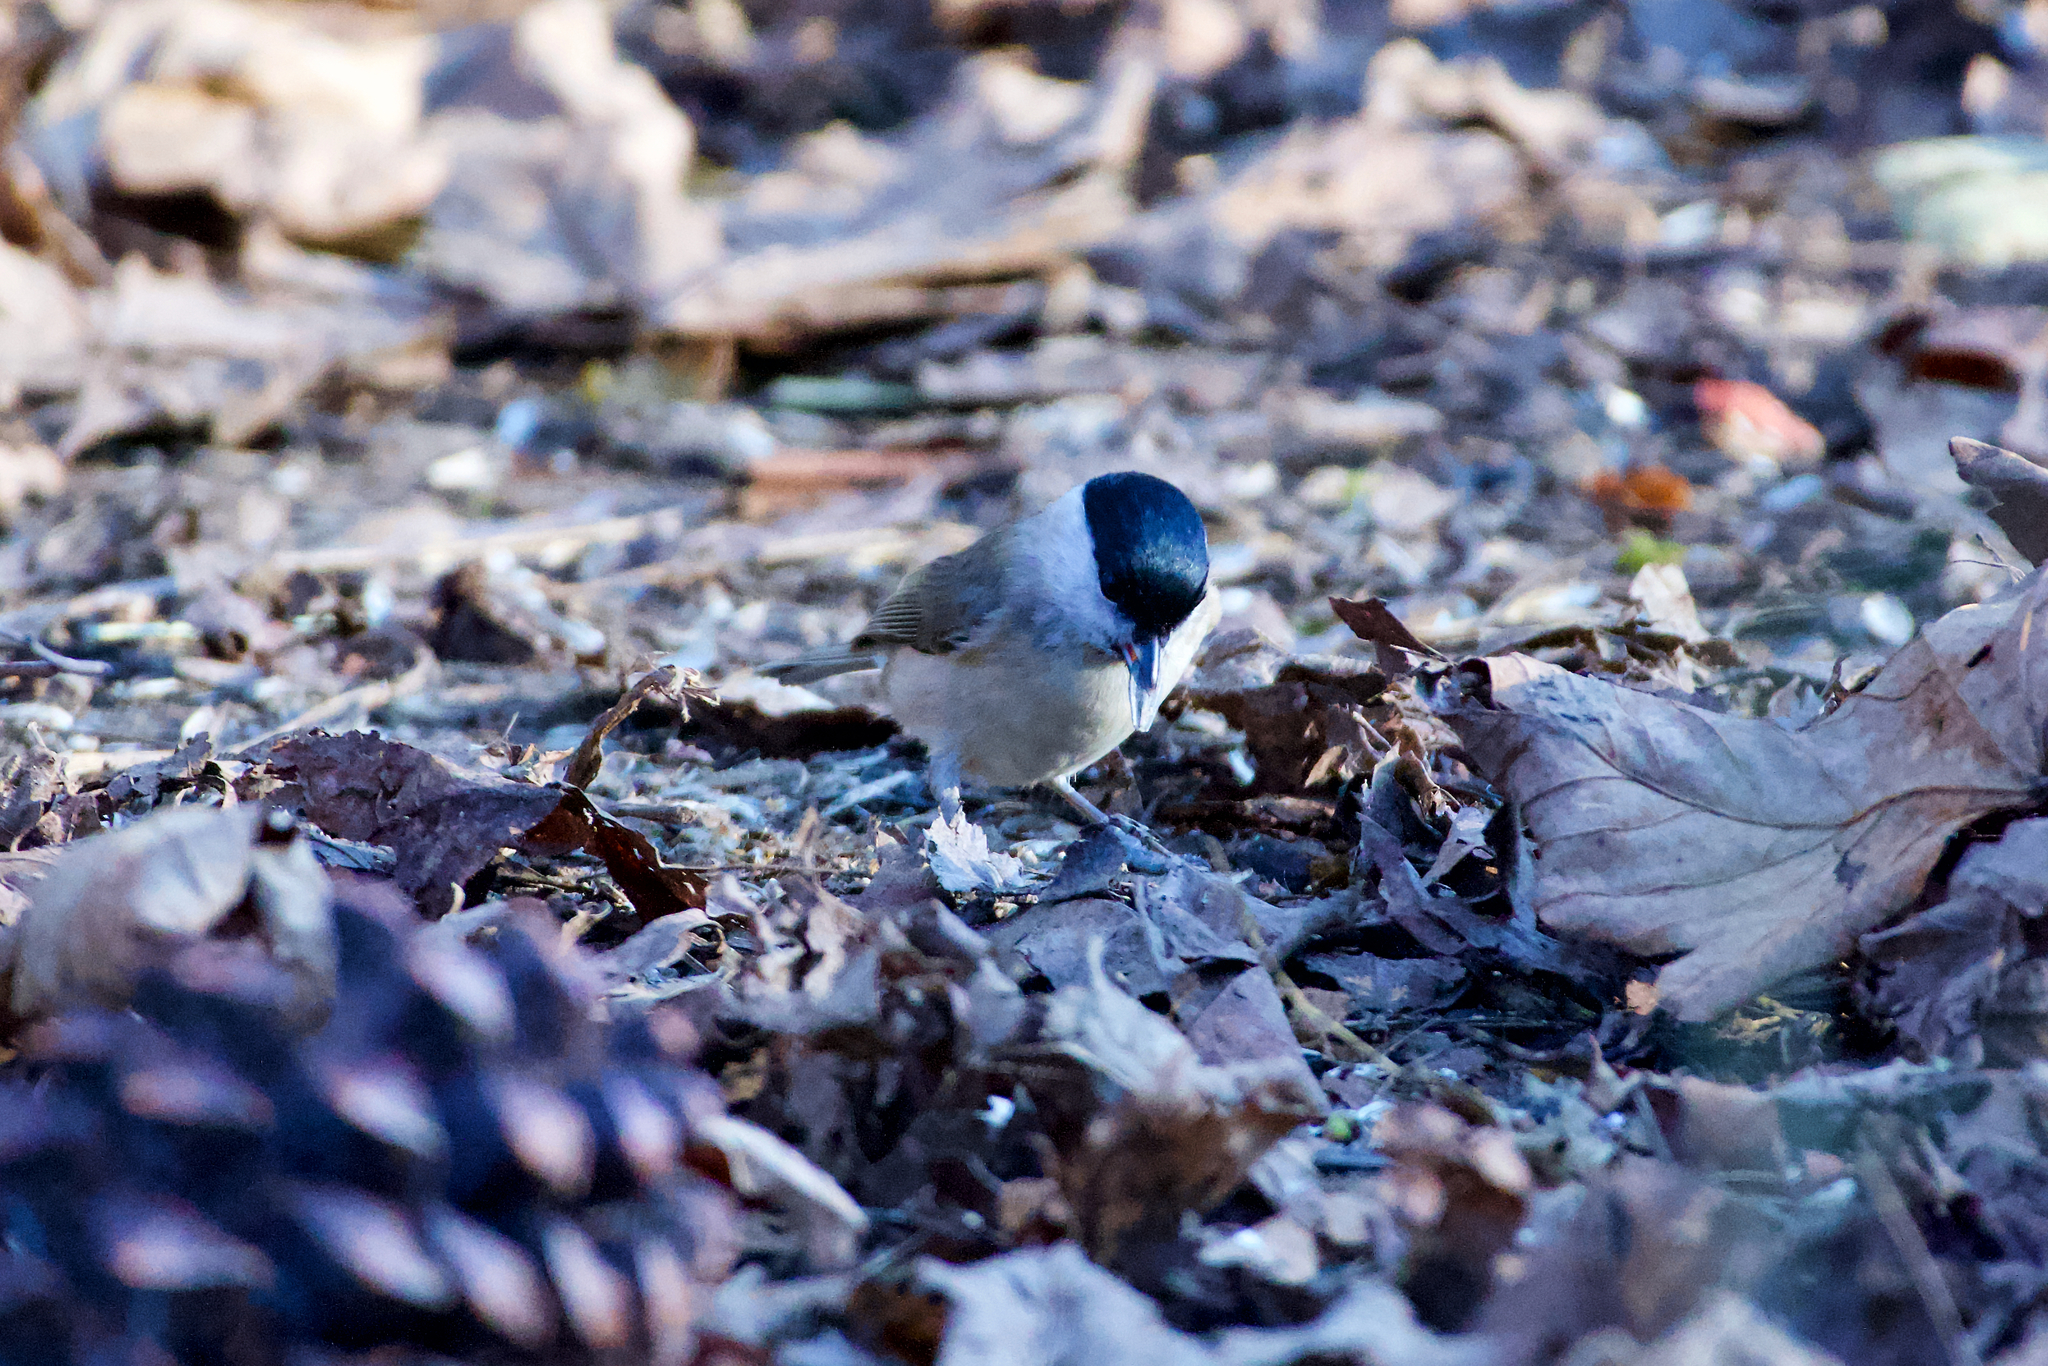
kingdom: Animalia
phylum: Chordata
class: Aves
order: Passeriformes
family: Paridae
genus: Poecile
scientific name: Poecile palustris
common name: Marsh tit
